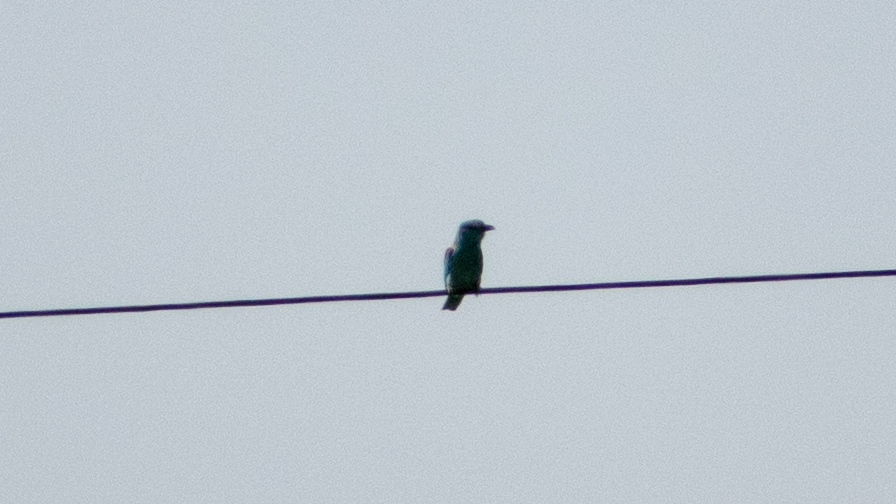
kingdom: Animalia
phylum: Chordata
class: Aves
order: Coraciiformes
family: Coraciidae
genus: Coracias
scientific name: Coracias garrulus
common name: European roller
